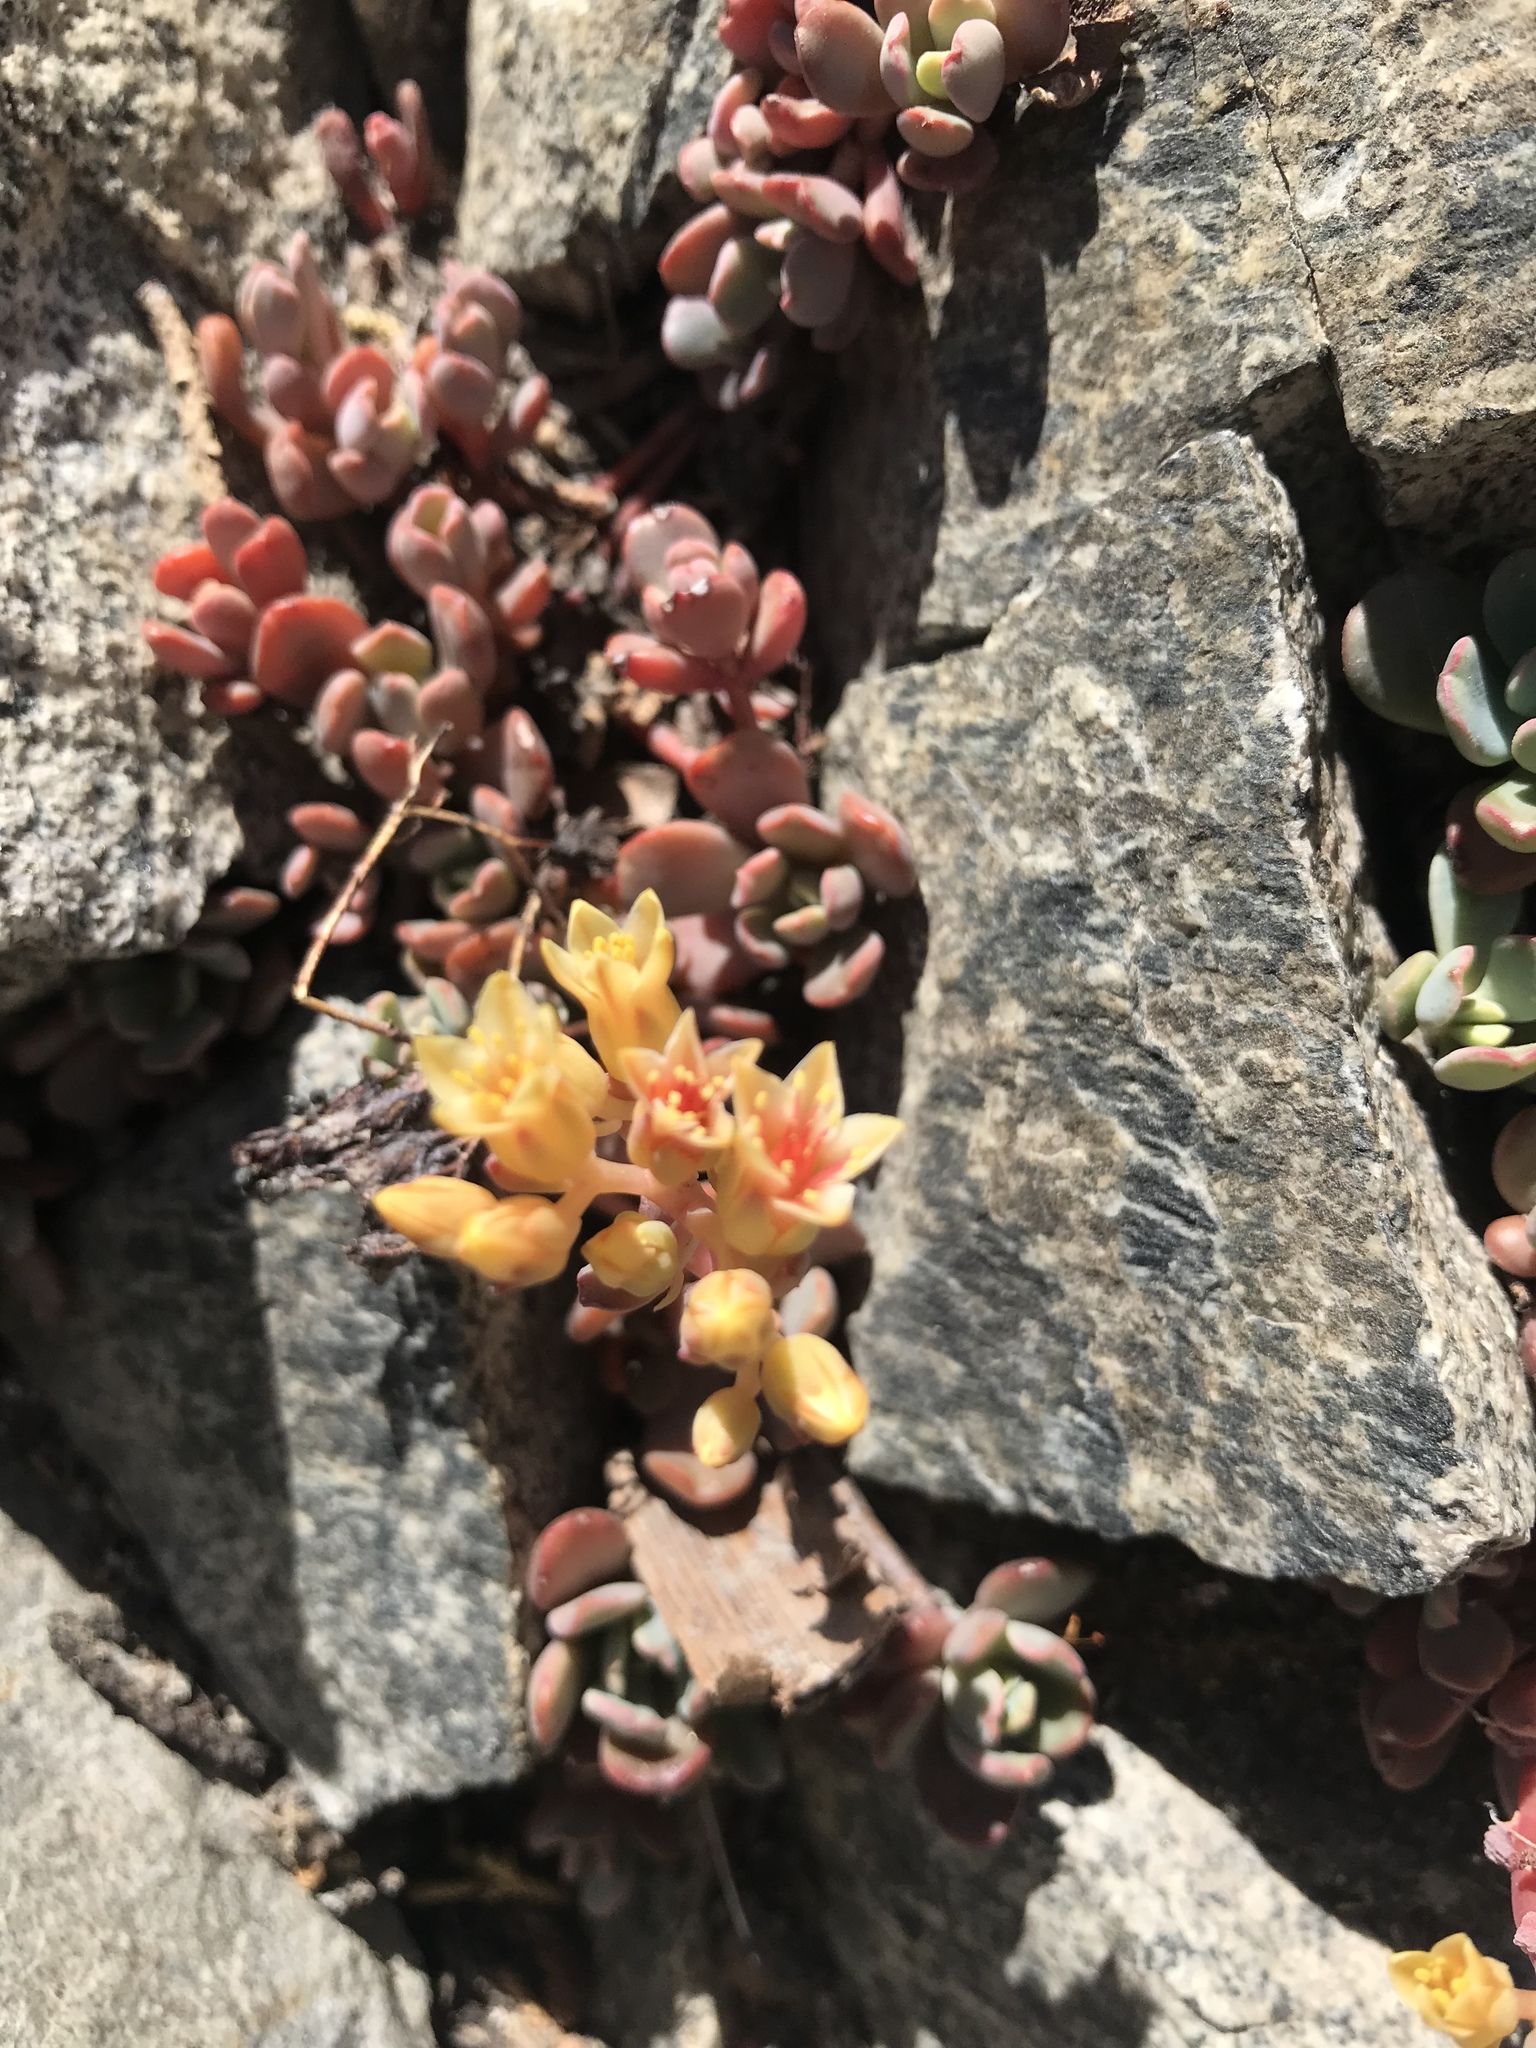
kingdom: Plantae
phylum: Tracheophyta
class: Magnoliopsida
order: Saxifragales
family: Crassulaceae
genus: Sedum
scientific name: Sedum obtusatum
